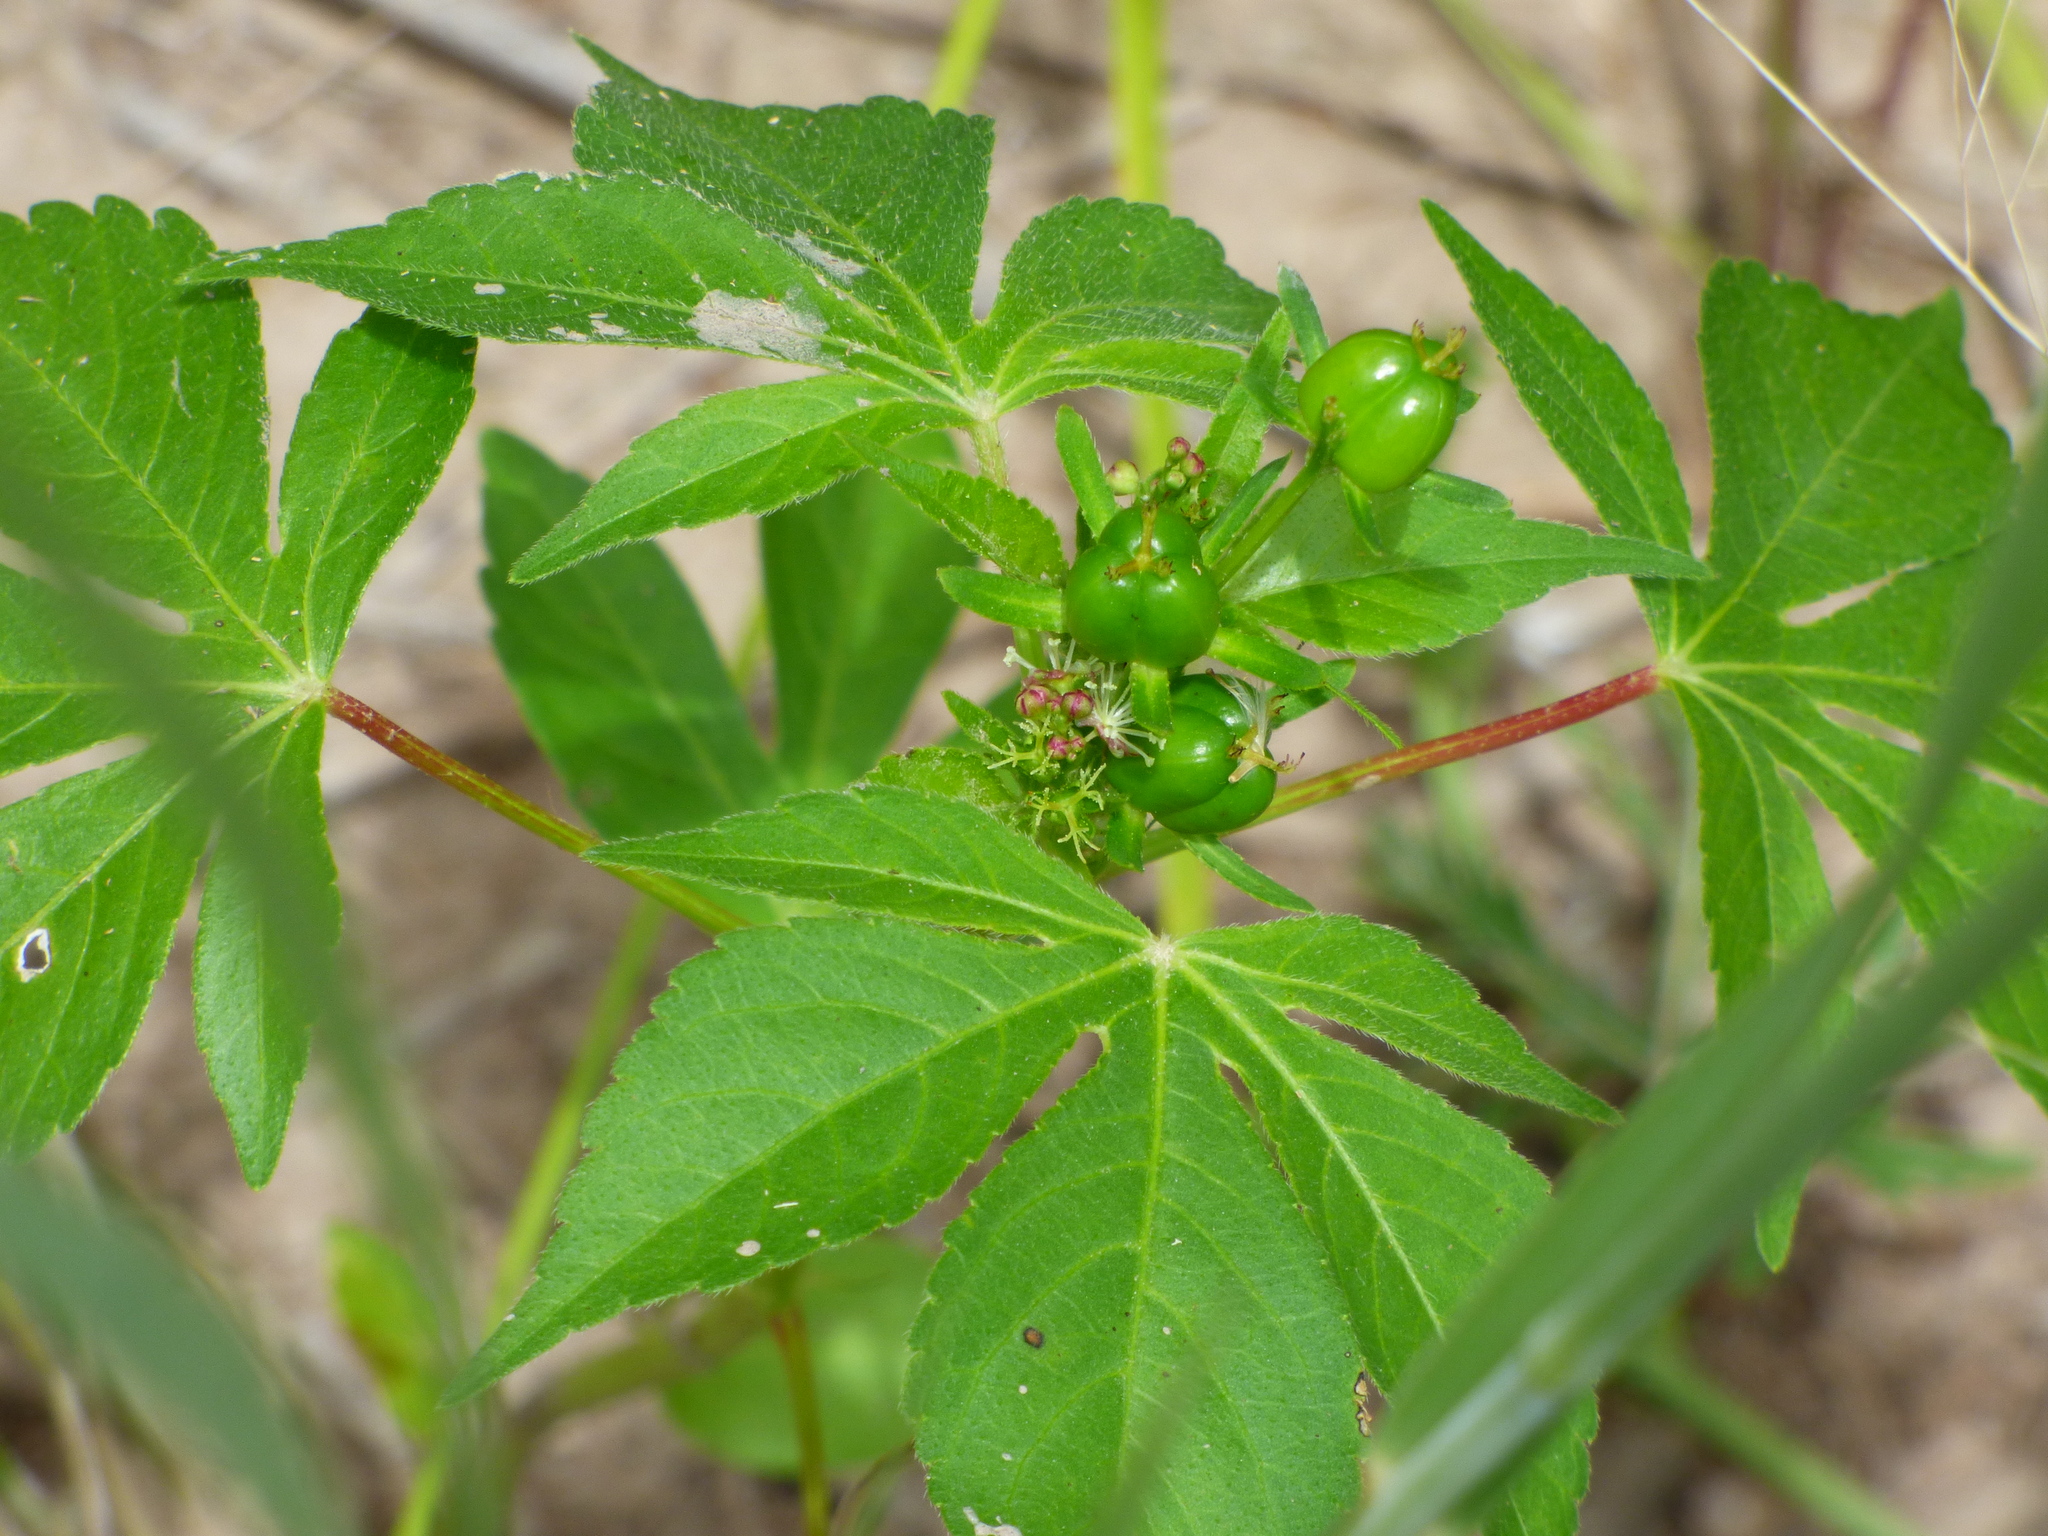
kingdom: Plantae
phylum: Tracheophyta
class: Magnoliopsida
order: Malpighiales
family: Euphorbiaceae
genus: Astraea
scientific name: Astraea lobata
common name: Lobed croton
